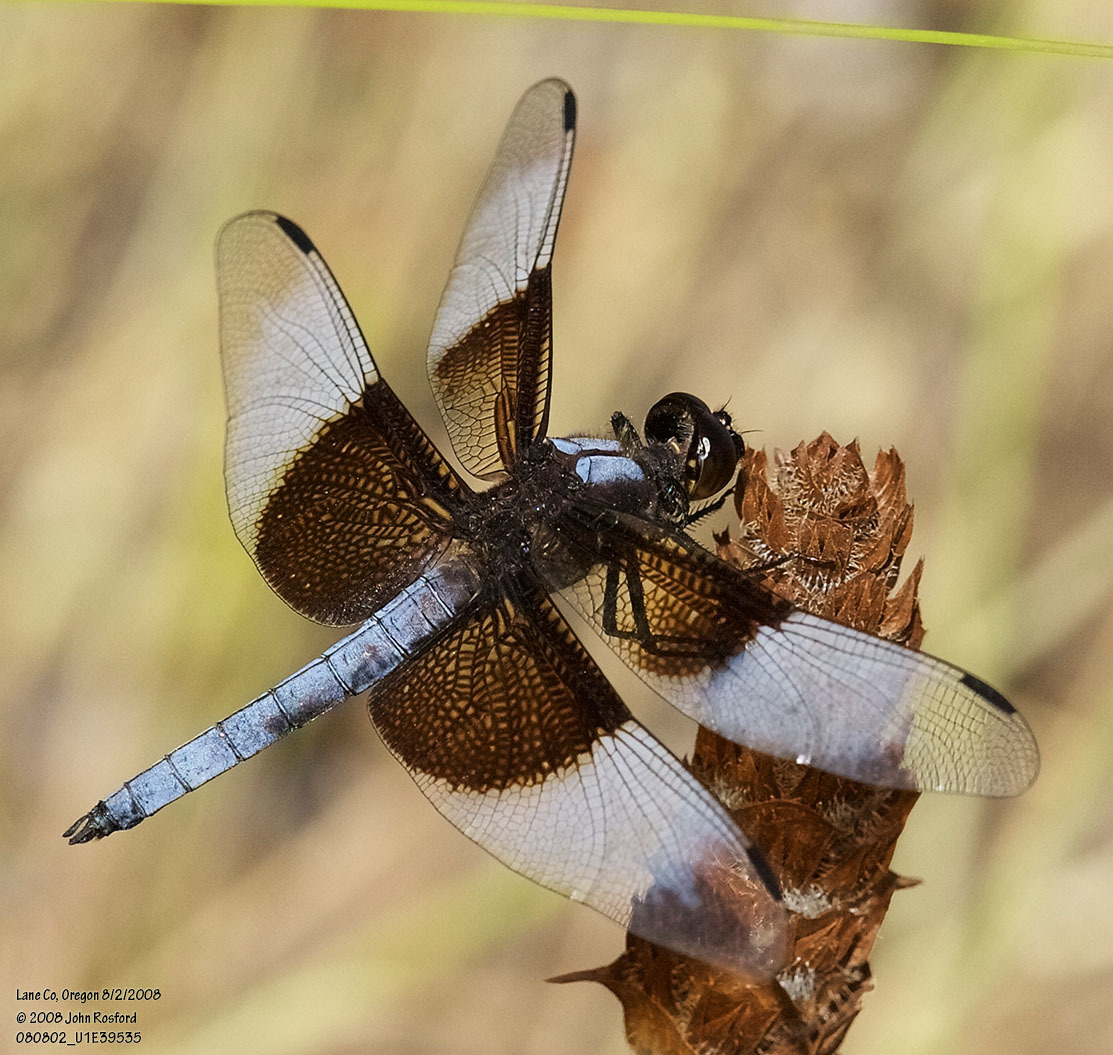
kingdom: Animalia
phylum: Arthropoda
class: Insecta
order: Odonata
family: Libellulidae
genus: Libellula
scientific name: Libellula luctuosa
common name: Widow skimmer
